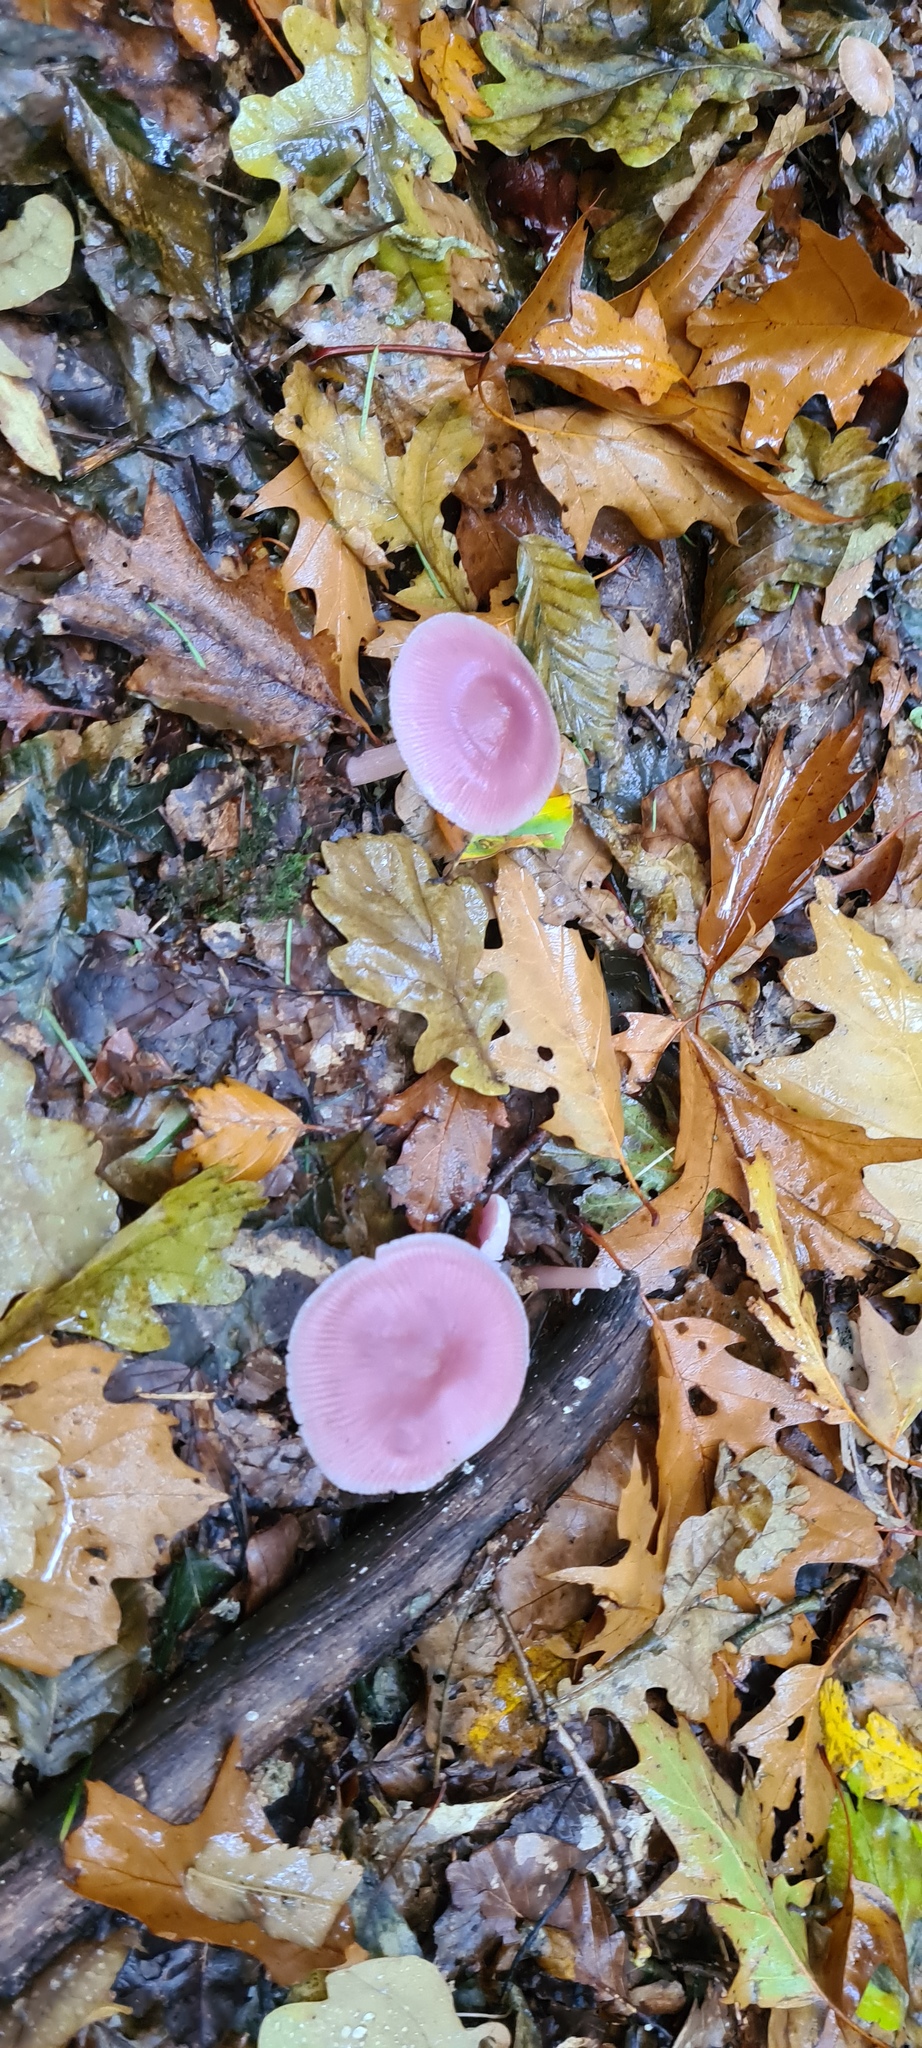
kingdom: Fungi
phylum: Basidiomycota
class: Agaricomycetes
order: Agaricales
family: Mycenaceae
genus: Mycena
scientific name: Mycena rosea
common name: Rosy bonnet
